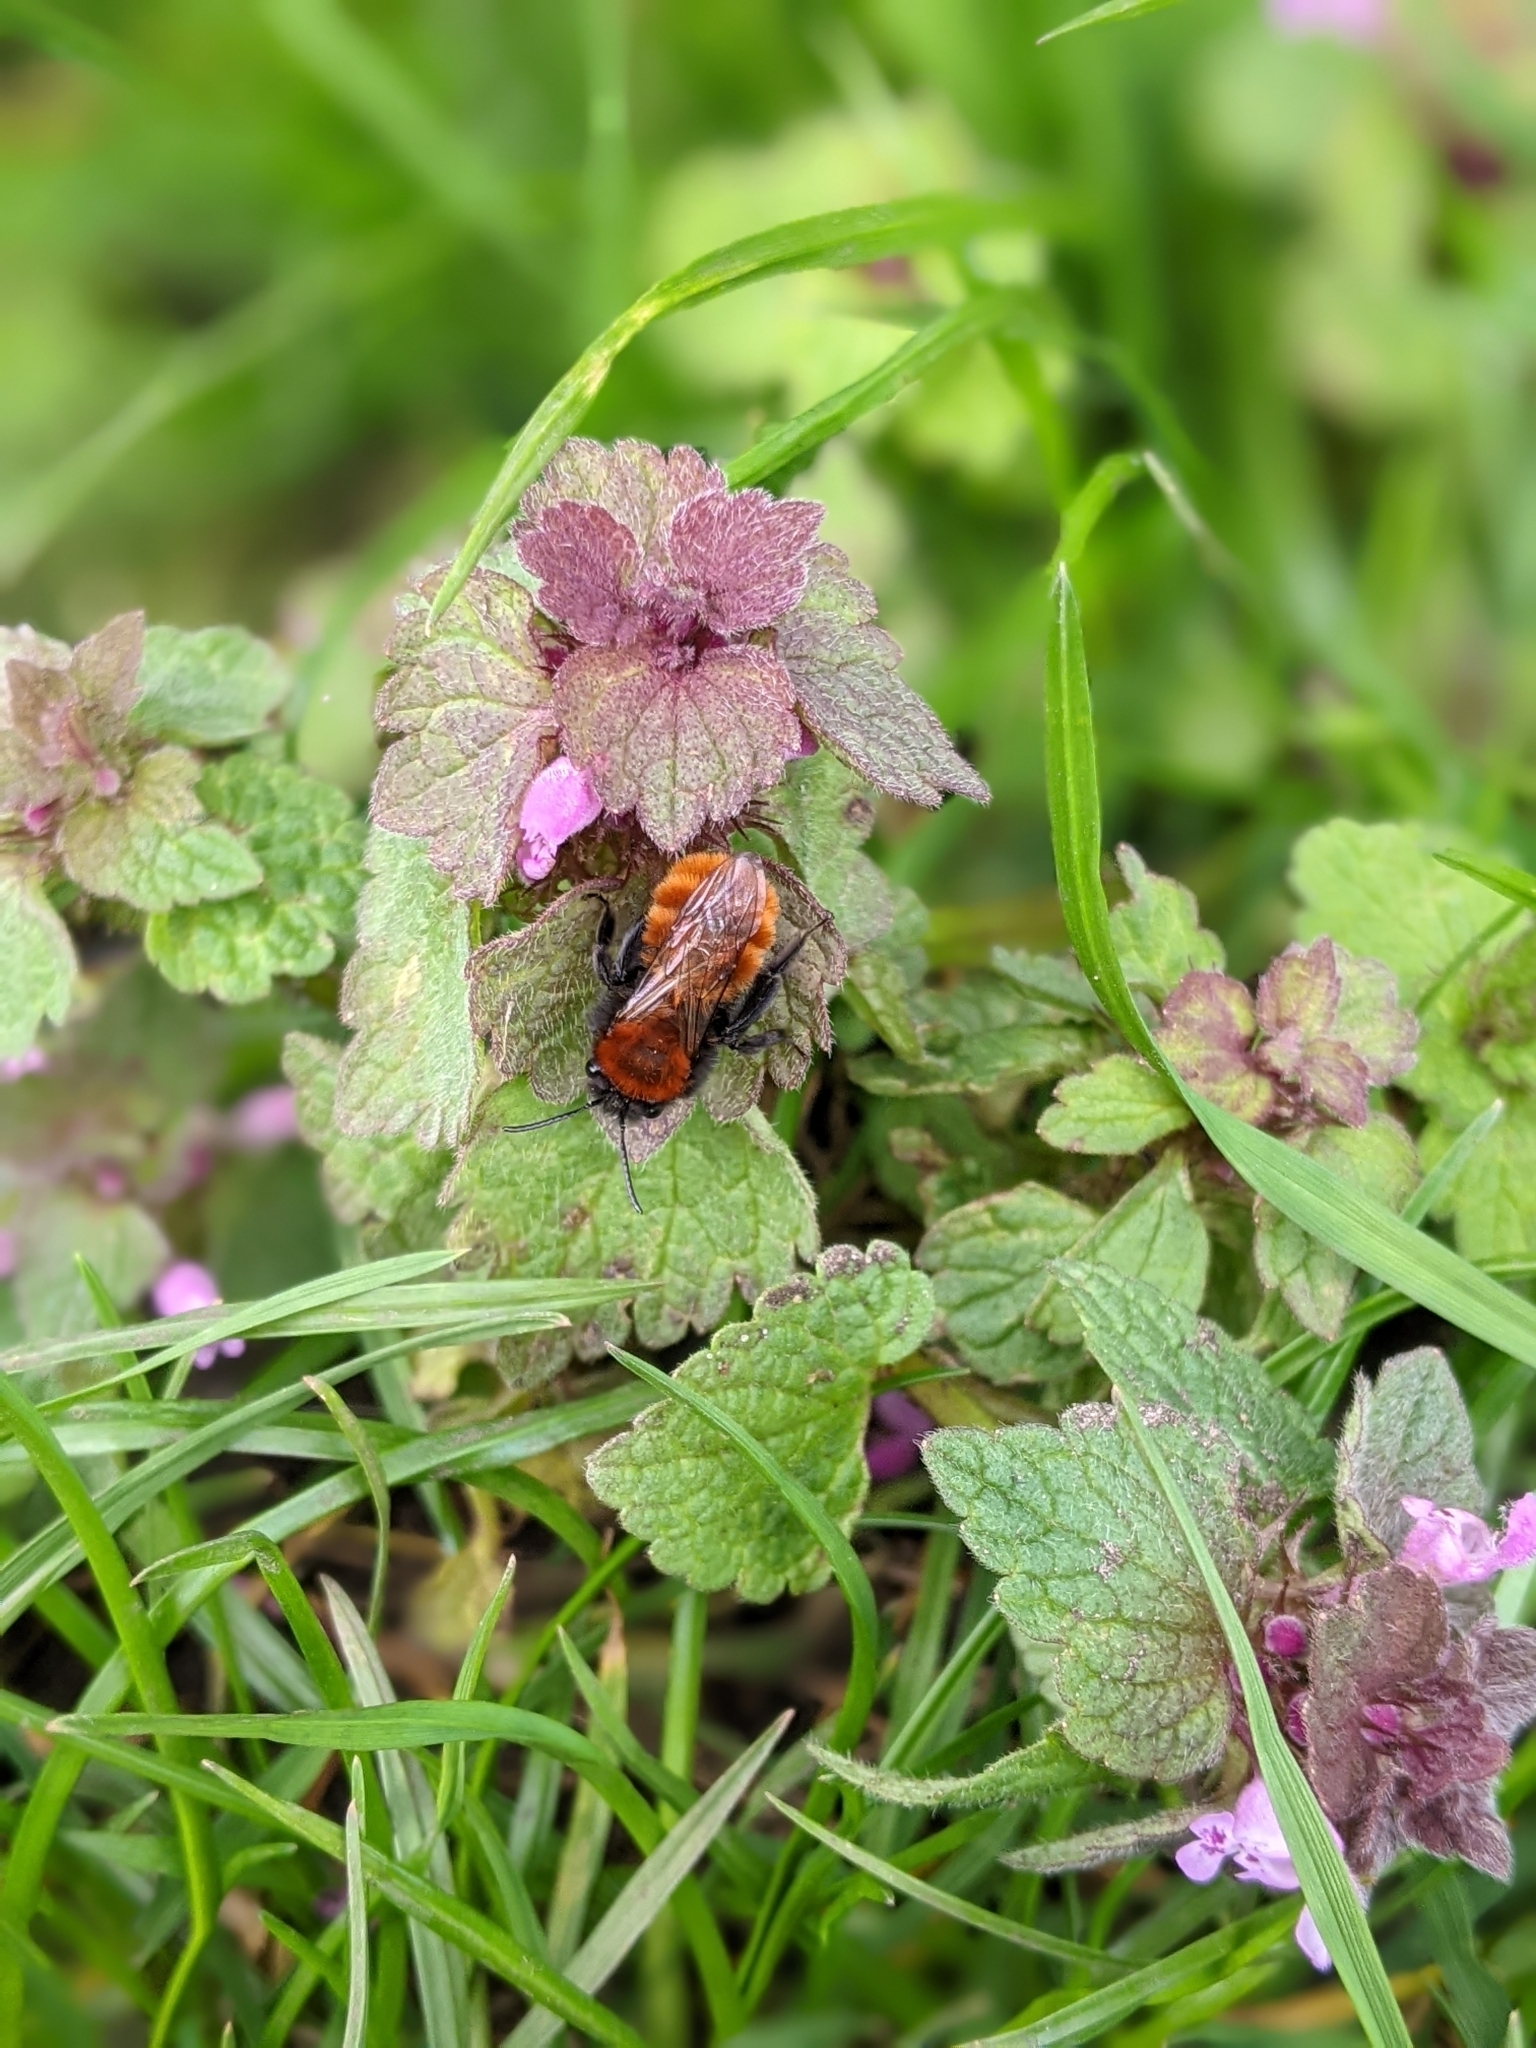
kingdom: Animalia
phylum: Arthropoda
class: Insecta
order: Hymenoptera
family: Andrenidae
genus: Andrena
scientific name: Andrena fulva
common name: Tawny mining bee
